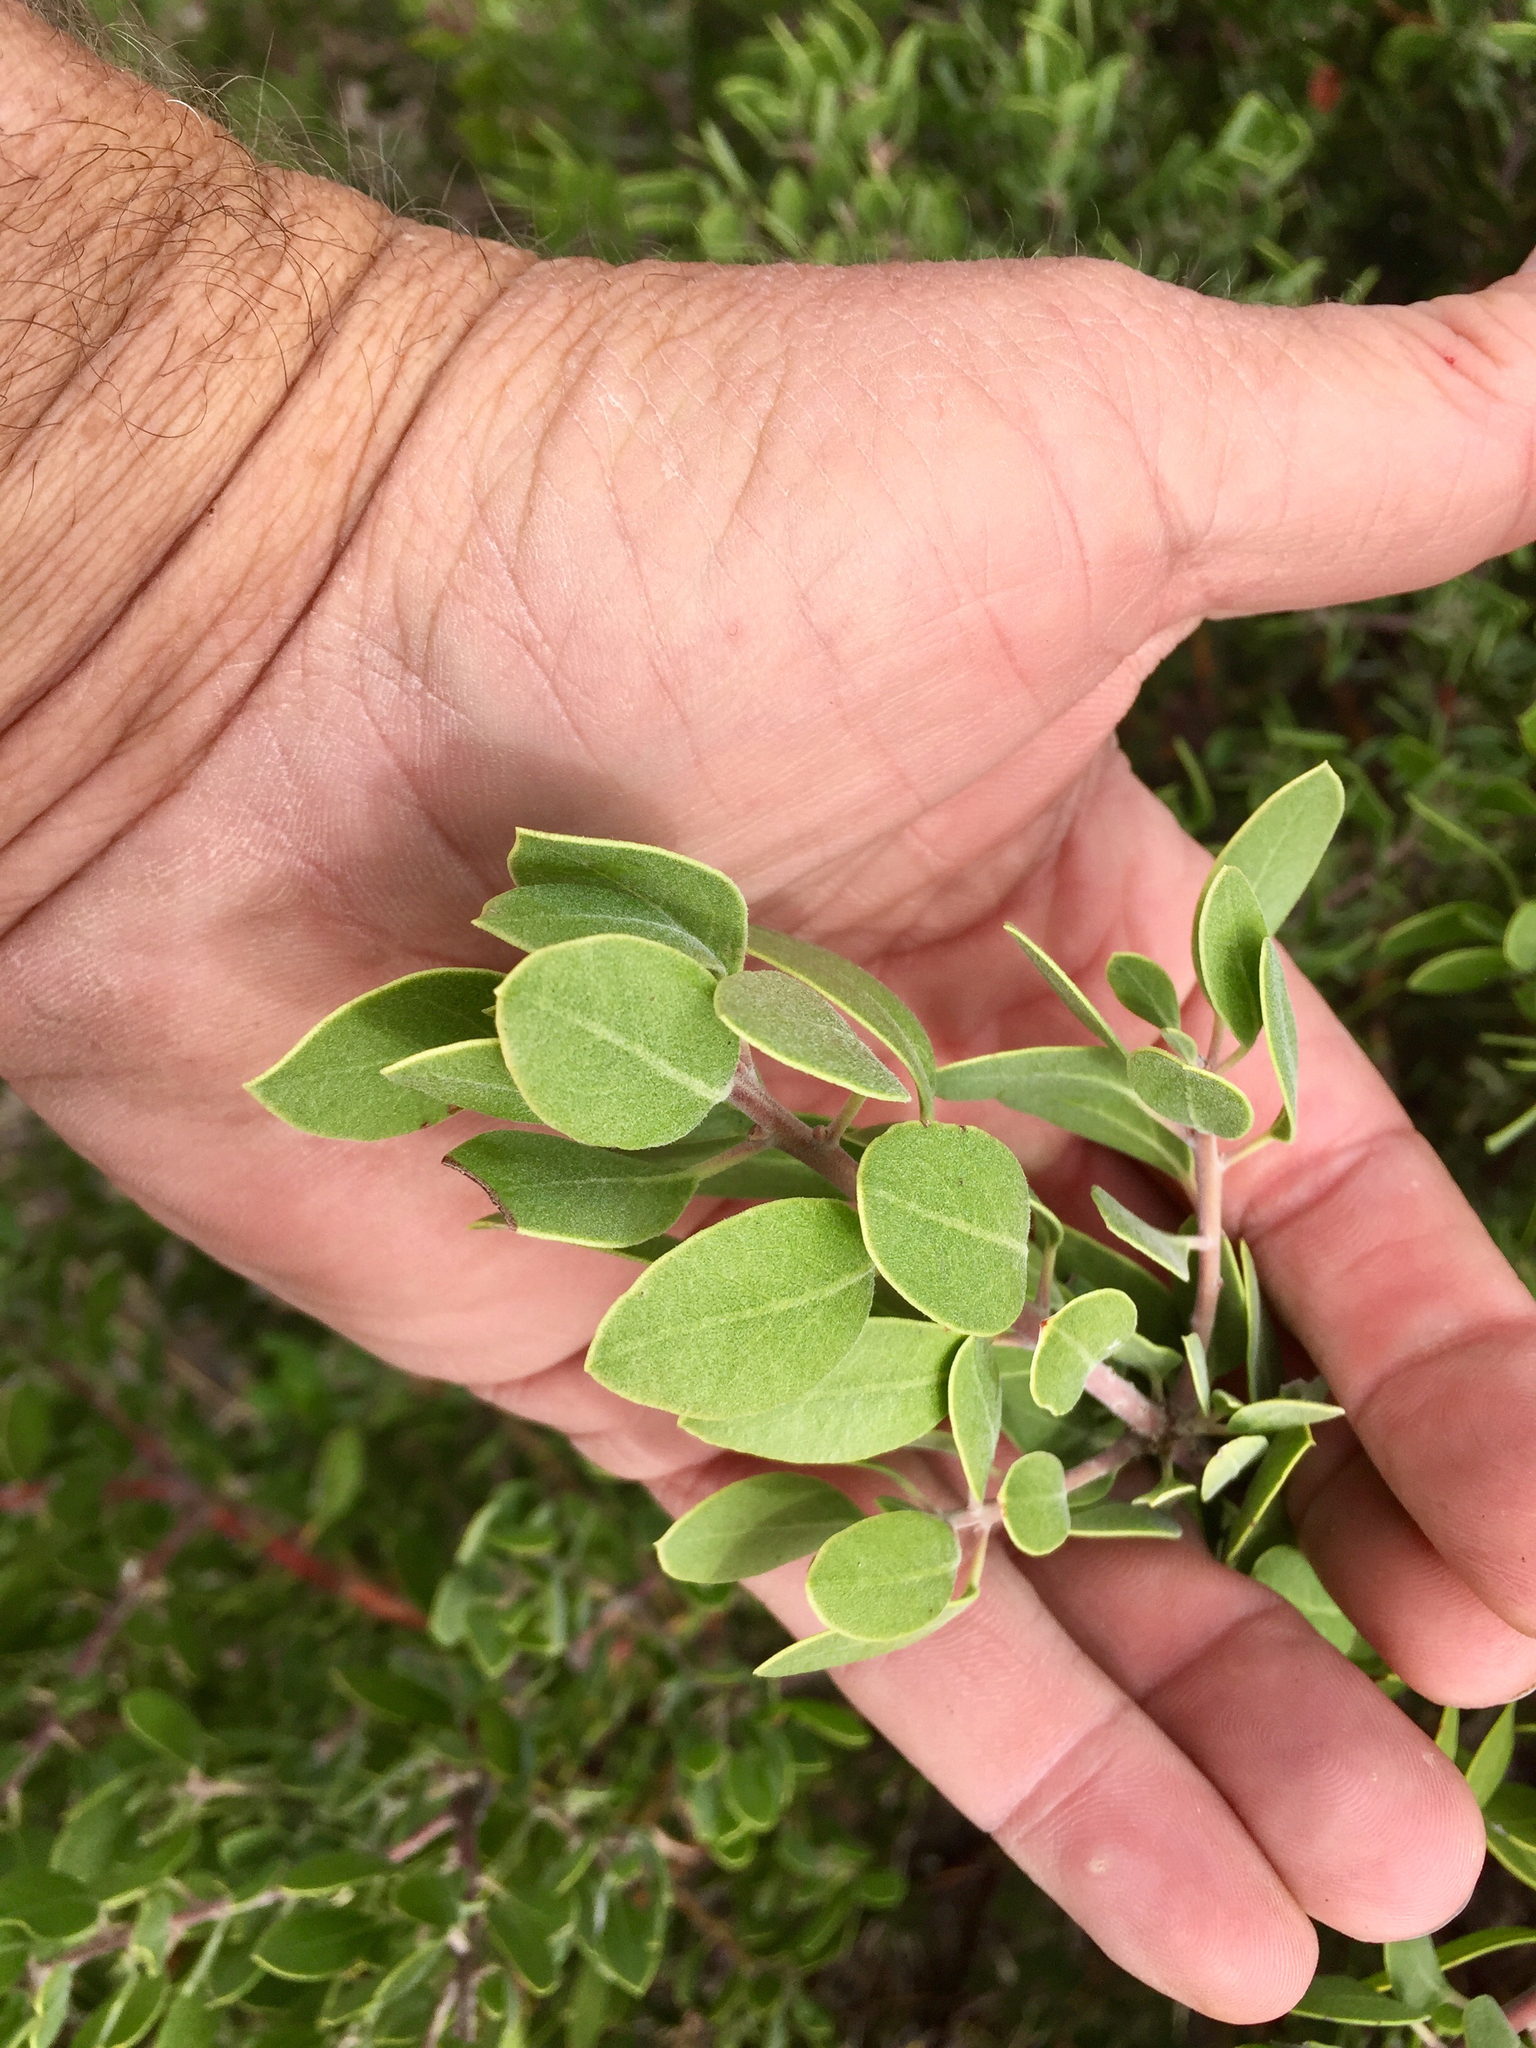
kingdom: Plantae
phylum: Tracheophyta
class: Magnoliopsida
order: Ericales
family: Ericaceae
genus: Arctostaphylos
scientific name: Arctostaphylos pungens
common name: Mexican manzanita
